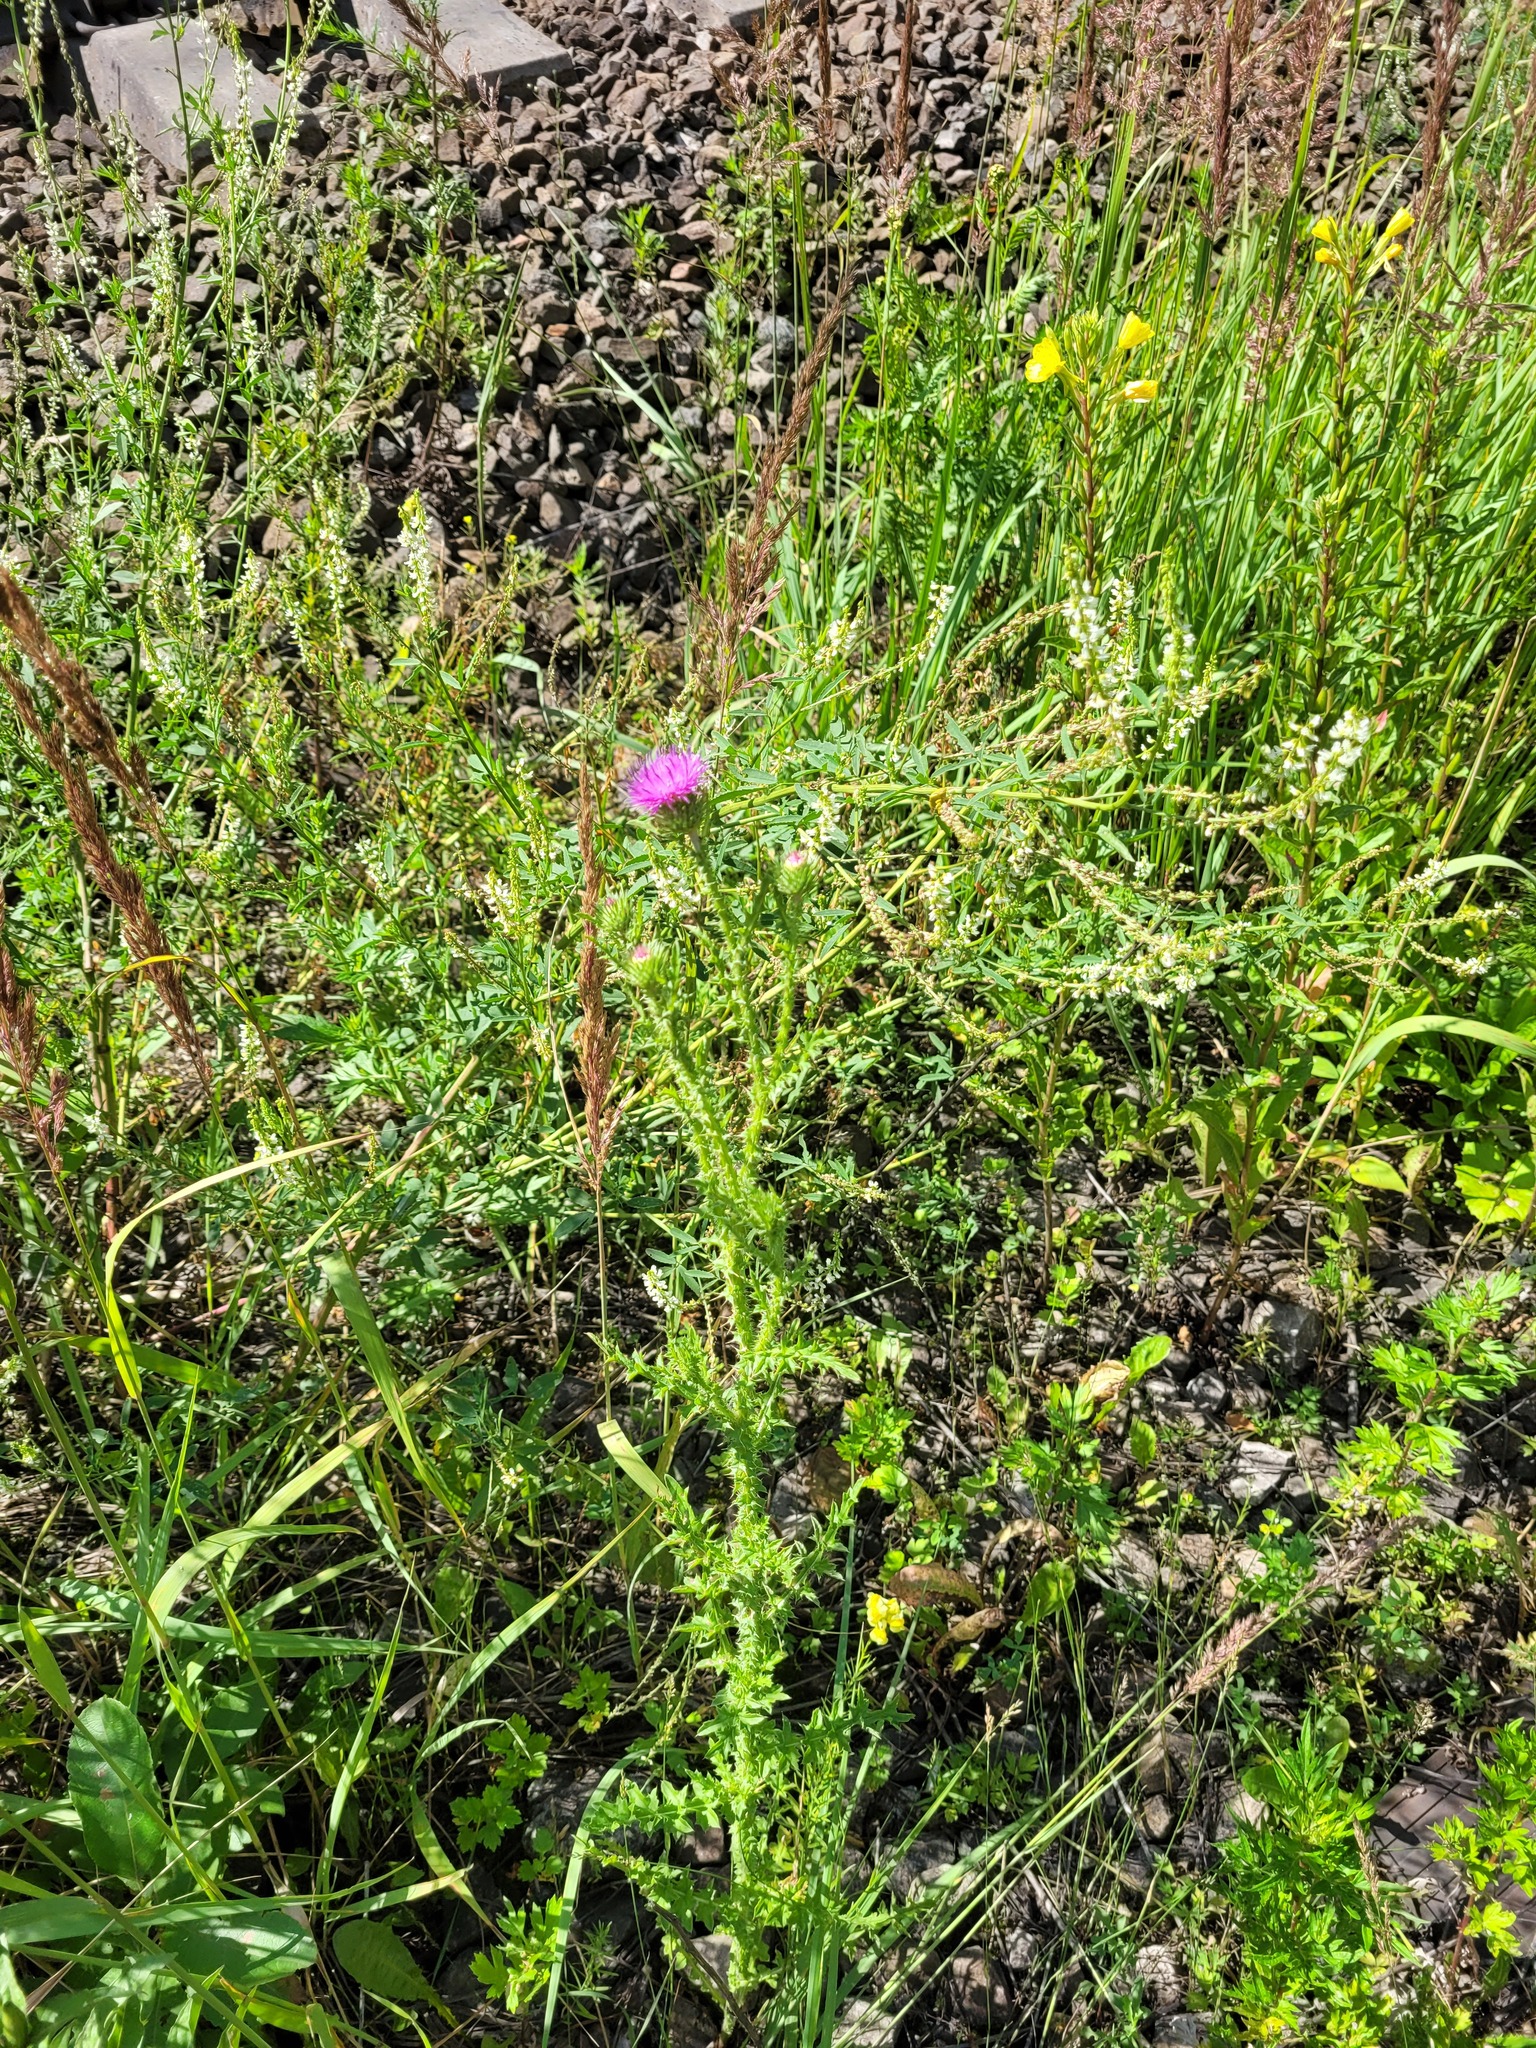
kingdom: Plantae
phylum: Tracheophyta
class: Magnoliopsida
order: Asterales
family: Asteraceae
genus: Carduus
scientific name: Carduus acanthoides
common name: Plumeless thistle
